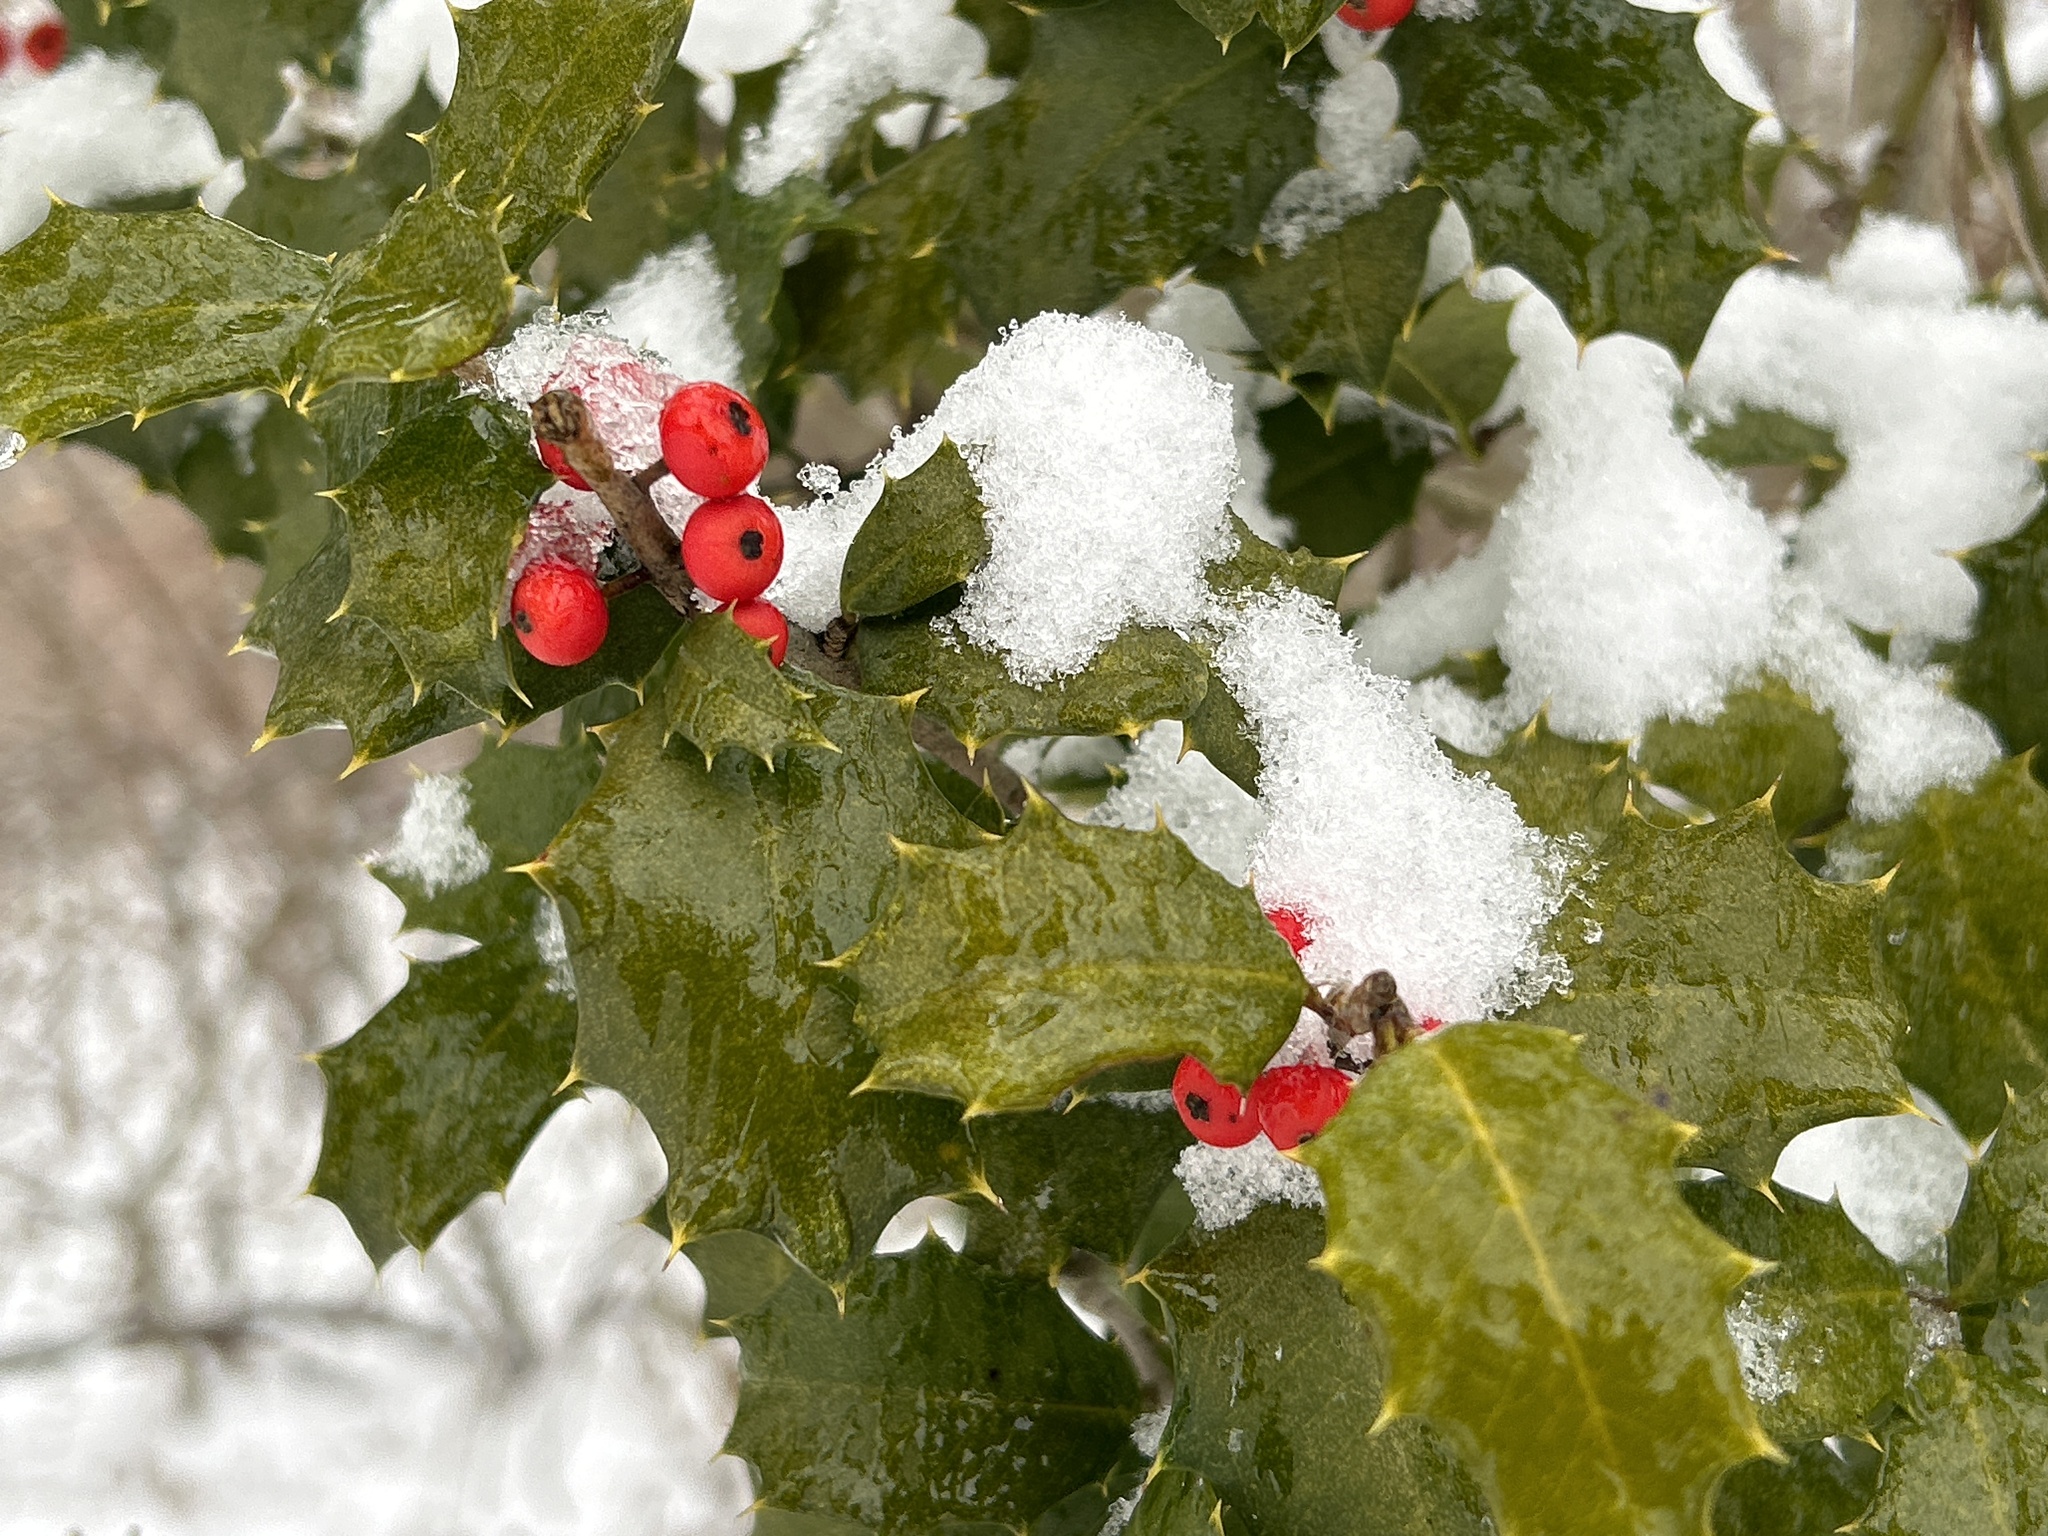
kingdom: Plantae
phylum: Tracheophyta
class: Magnoliopsida
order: Aquifoliales
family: Aquifoliaceae
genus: Ilex
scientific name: Ilex opaca
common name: American holly
